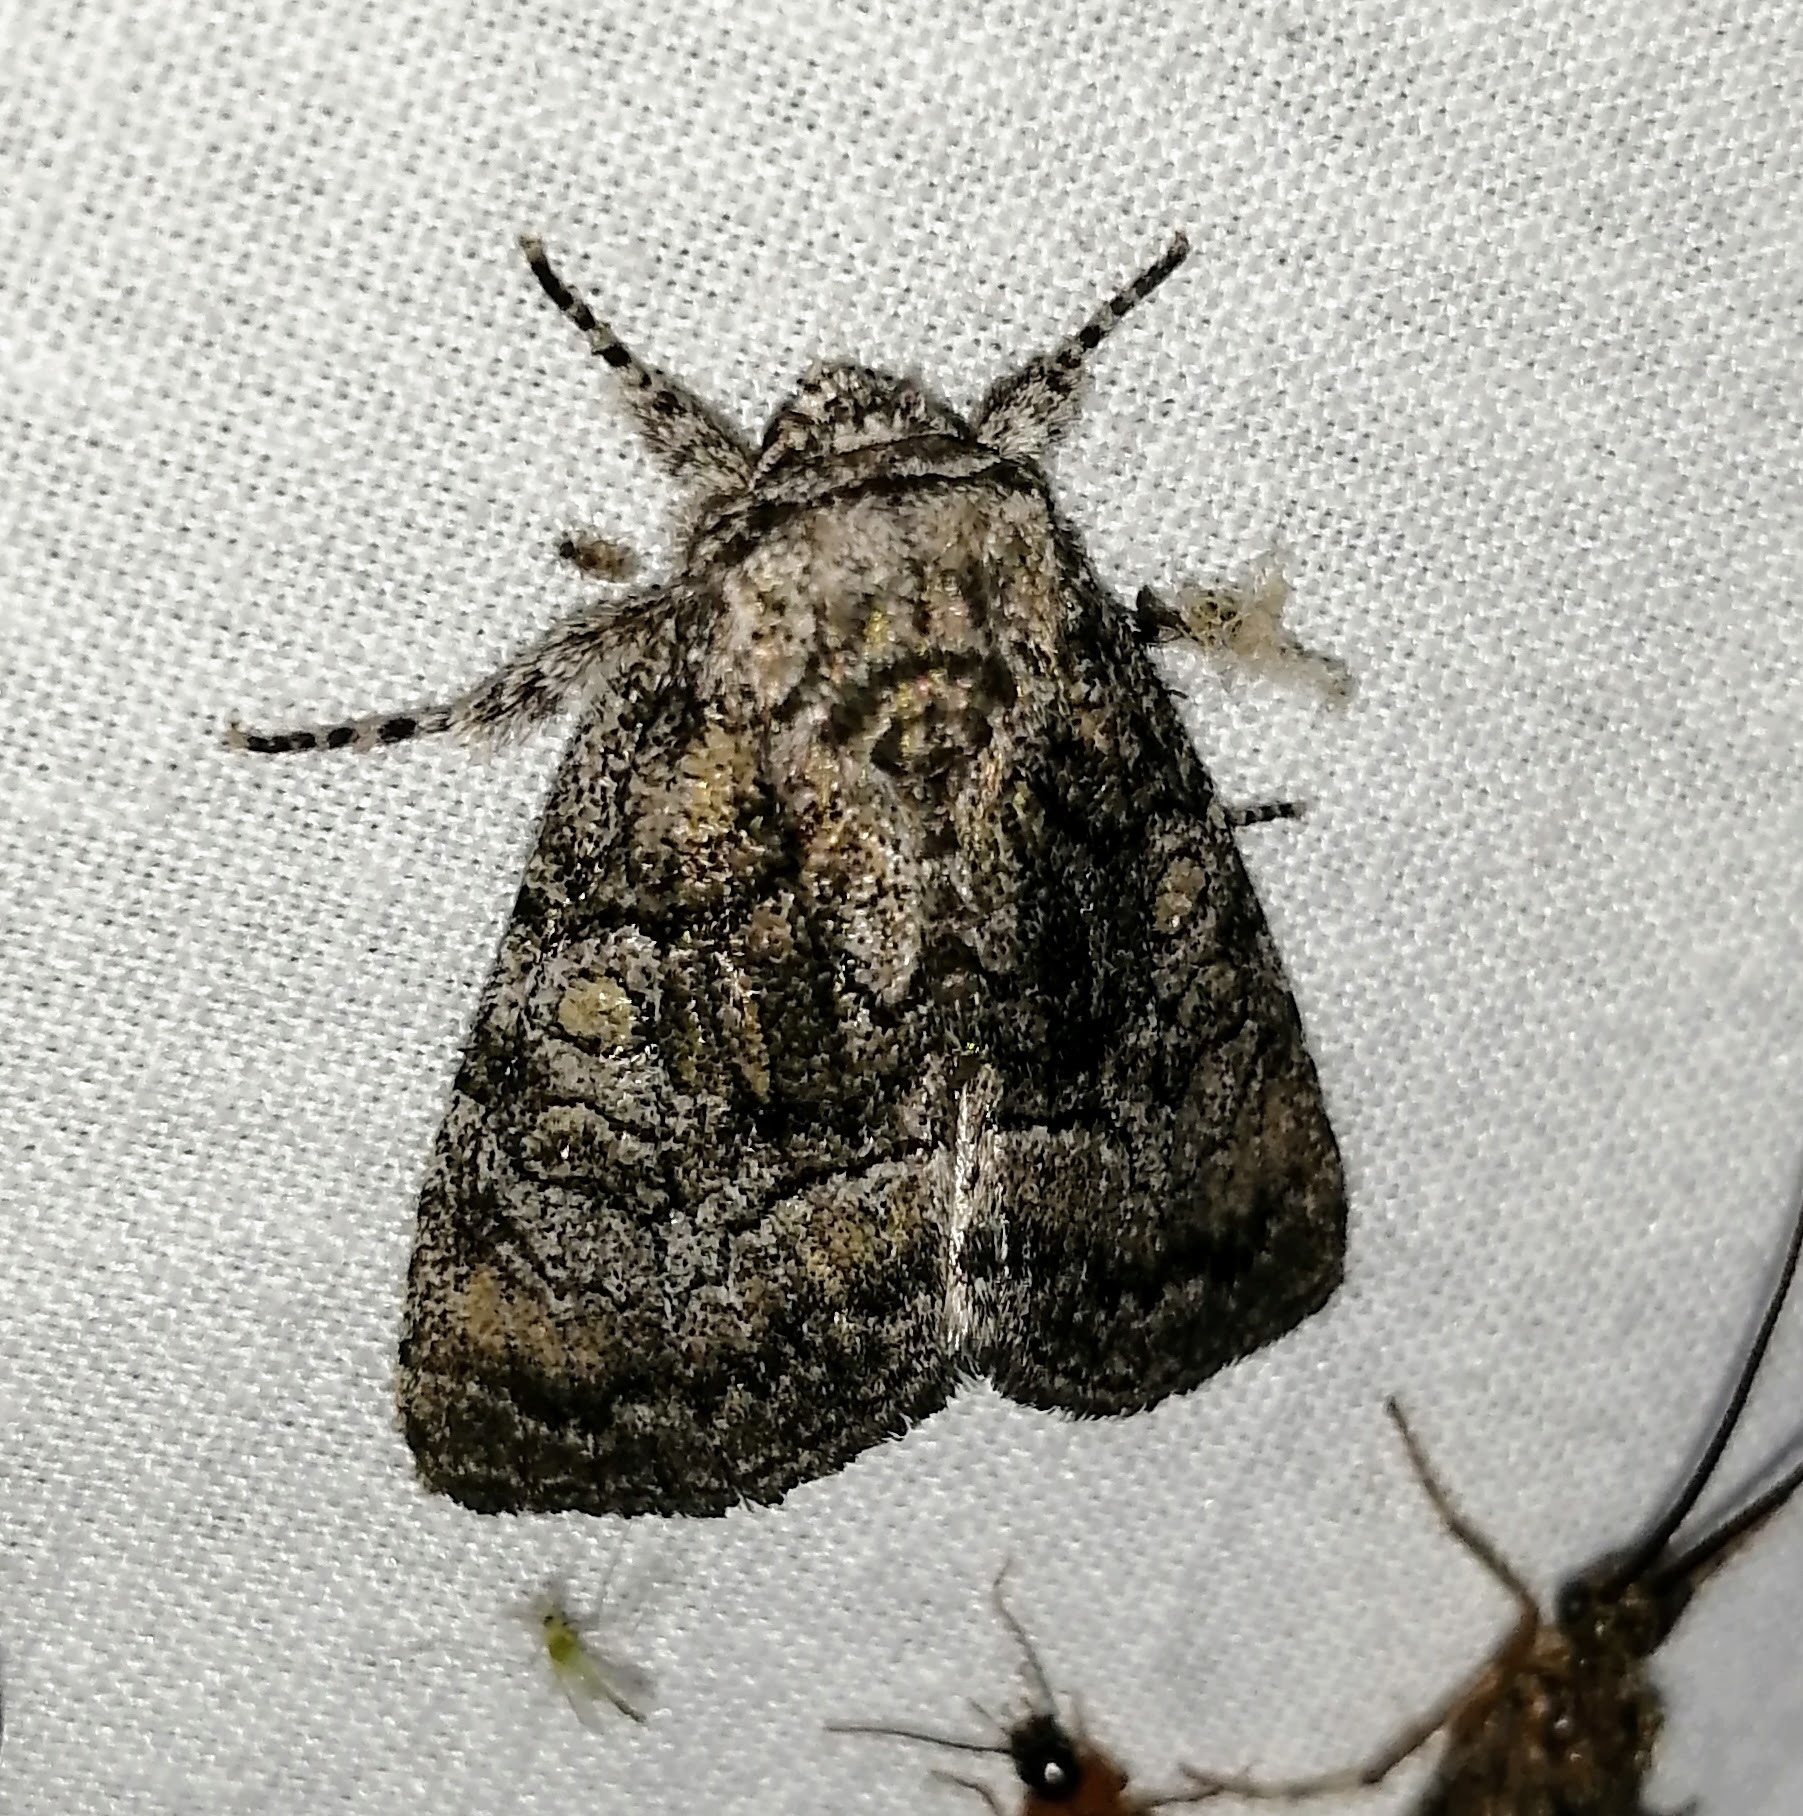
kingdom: Animalia
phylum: Arthropoda
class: Insecta
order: Lepidoptera
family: Noctuidae
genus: Raphia
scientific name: Raphia frater
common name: Brother
